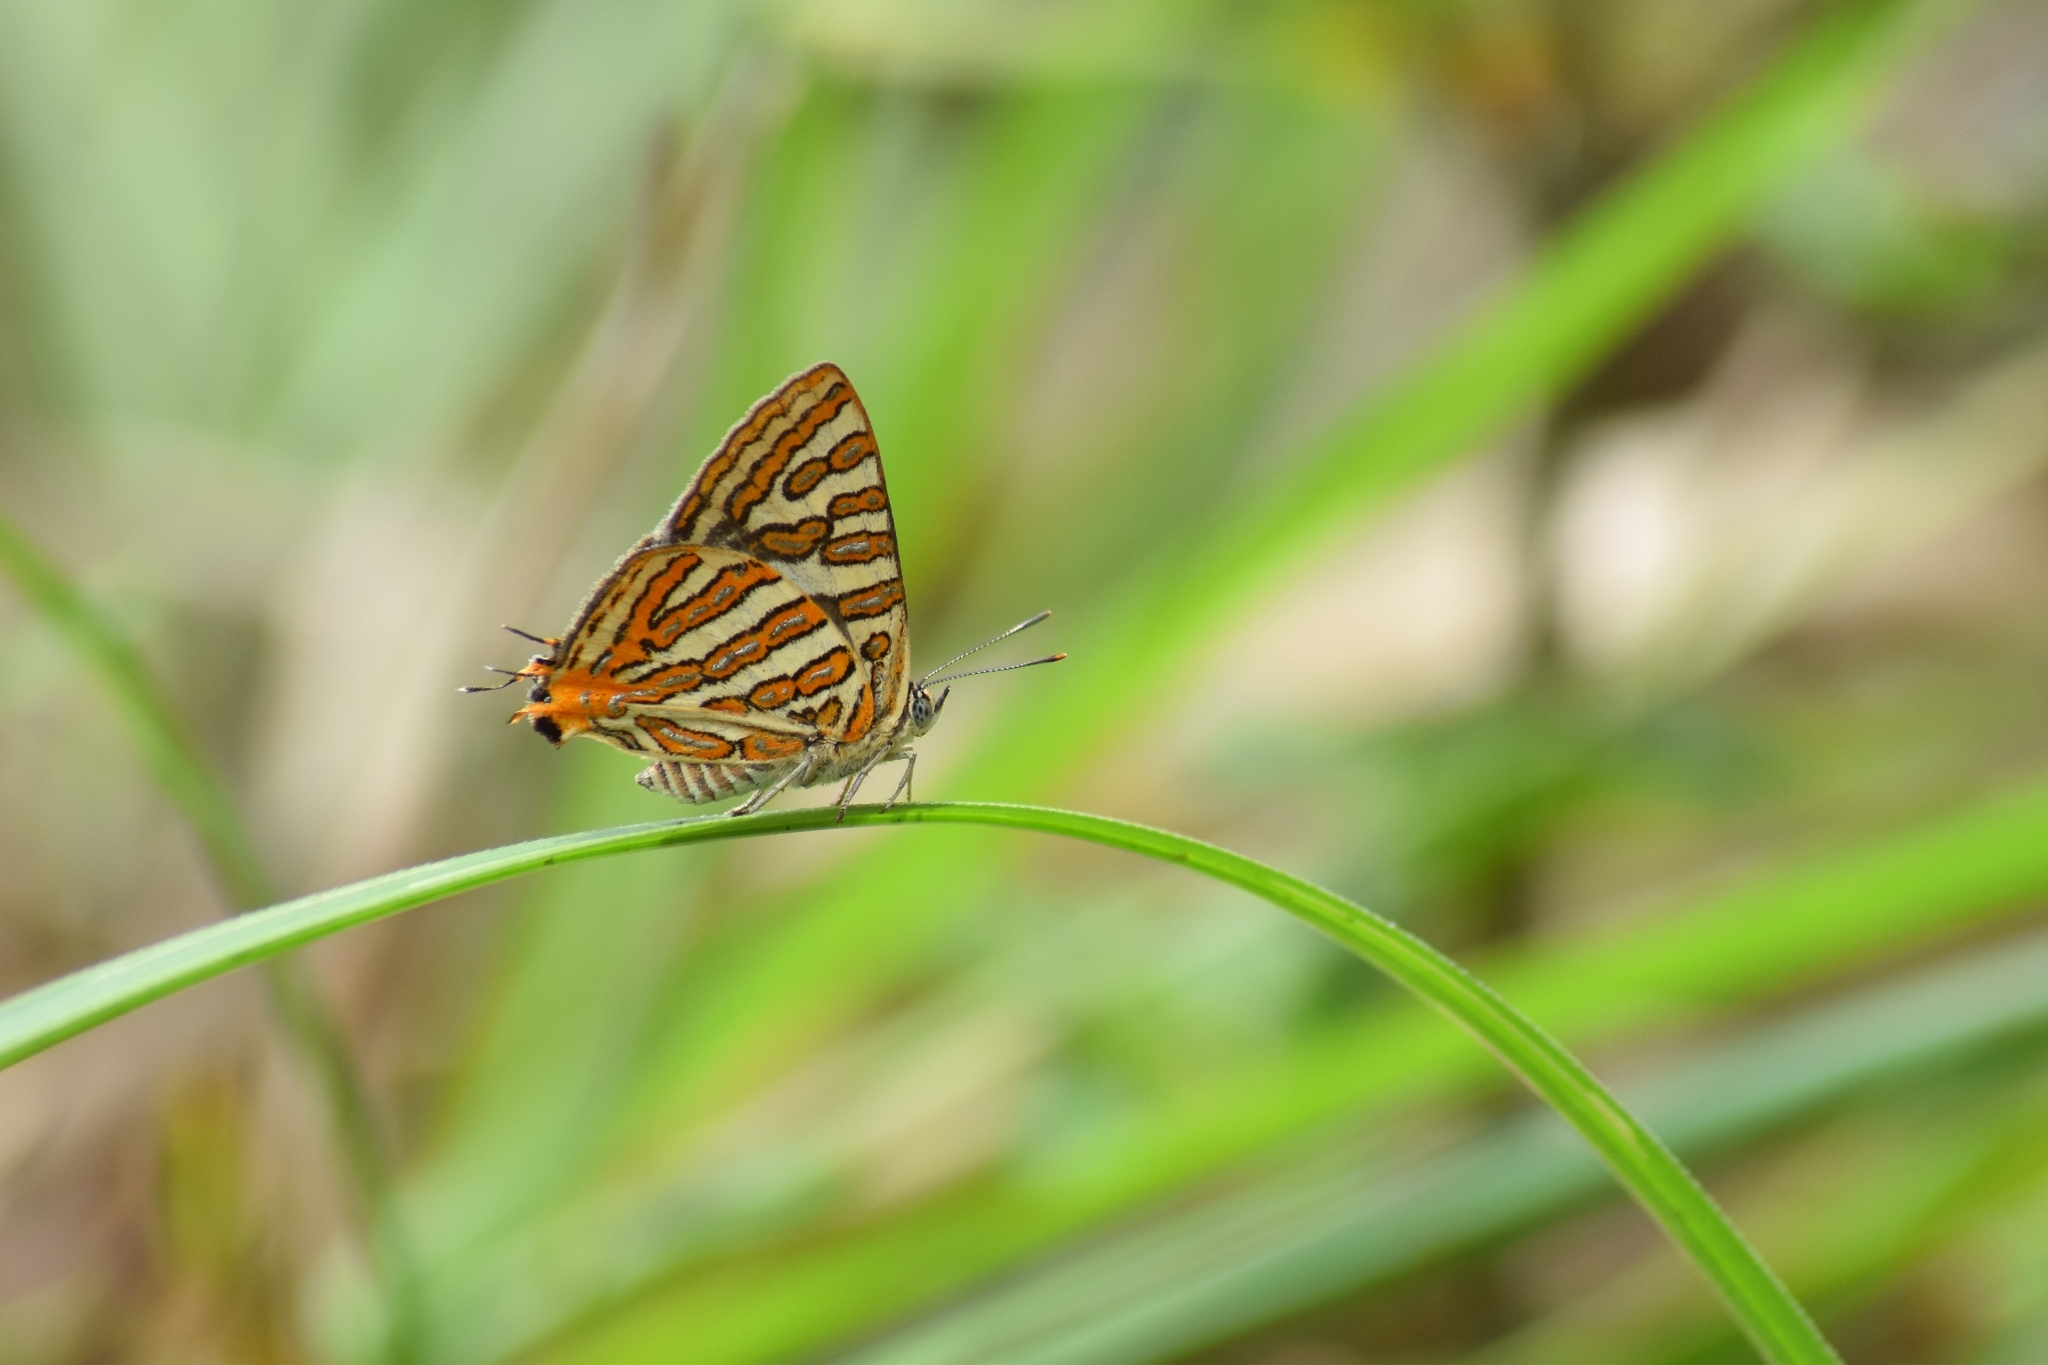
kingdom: Animalia
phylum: Arthropoda
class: Insecta
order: Lepidoptera
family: Lycaenidae
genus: Cigaritis
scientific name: Cigaritis vulcanus
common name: Common silverline
